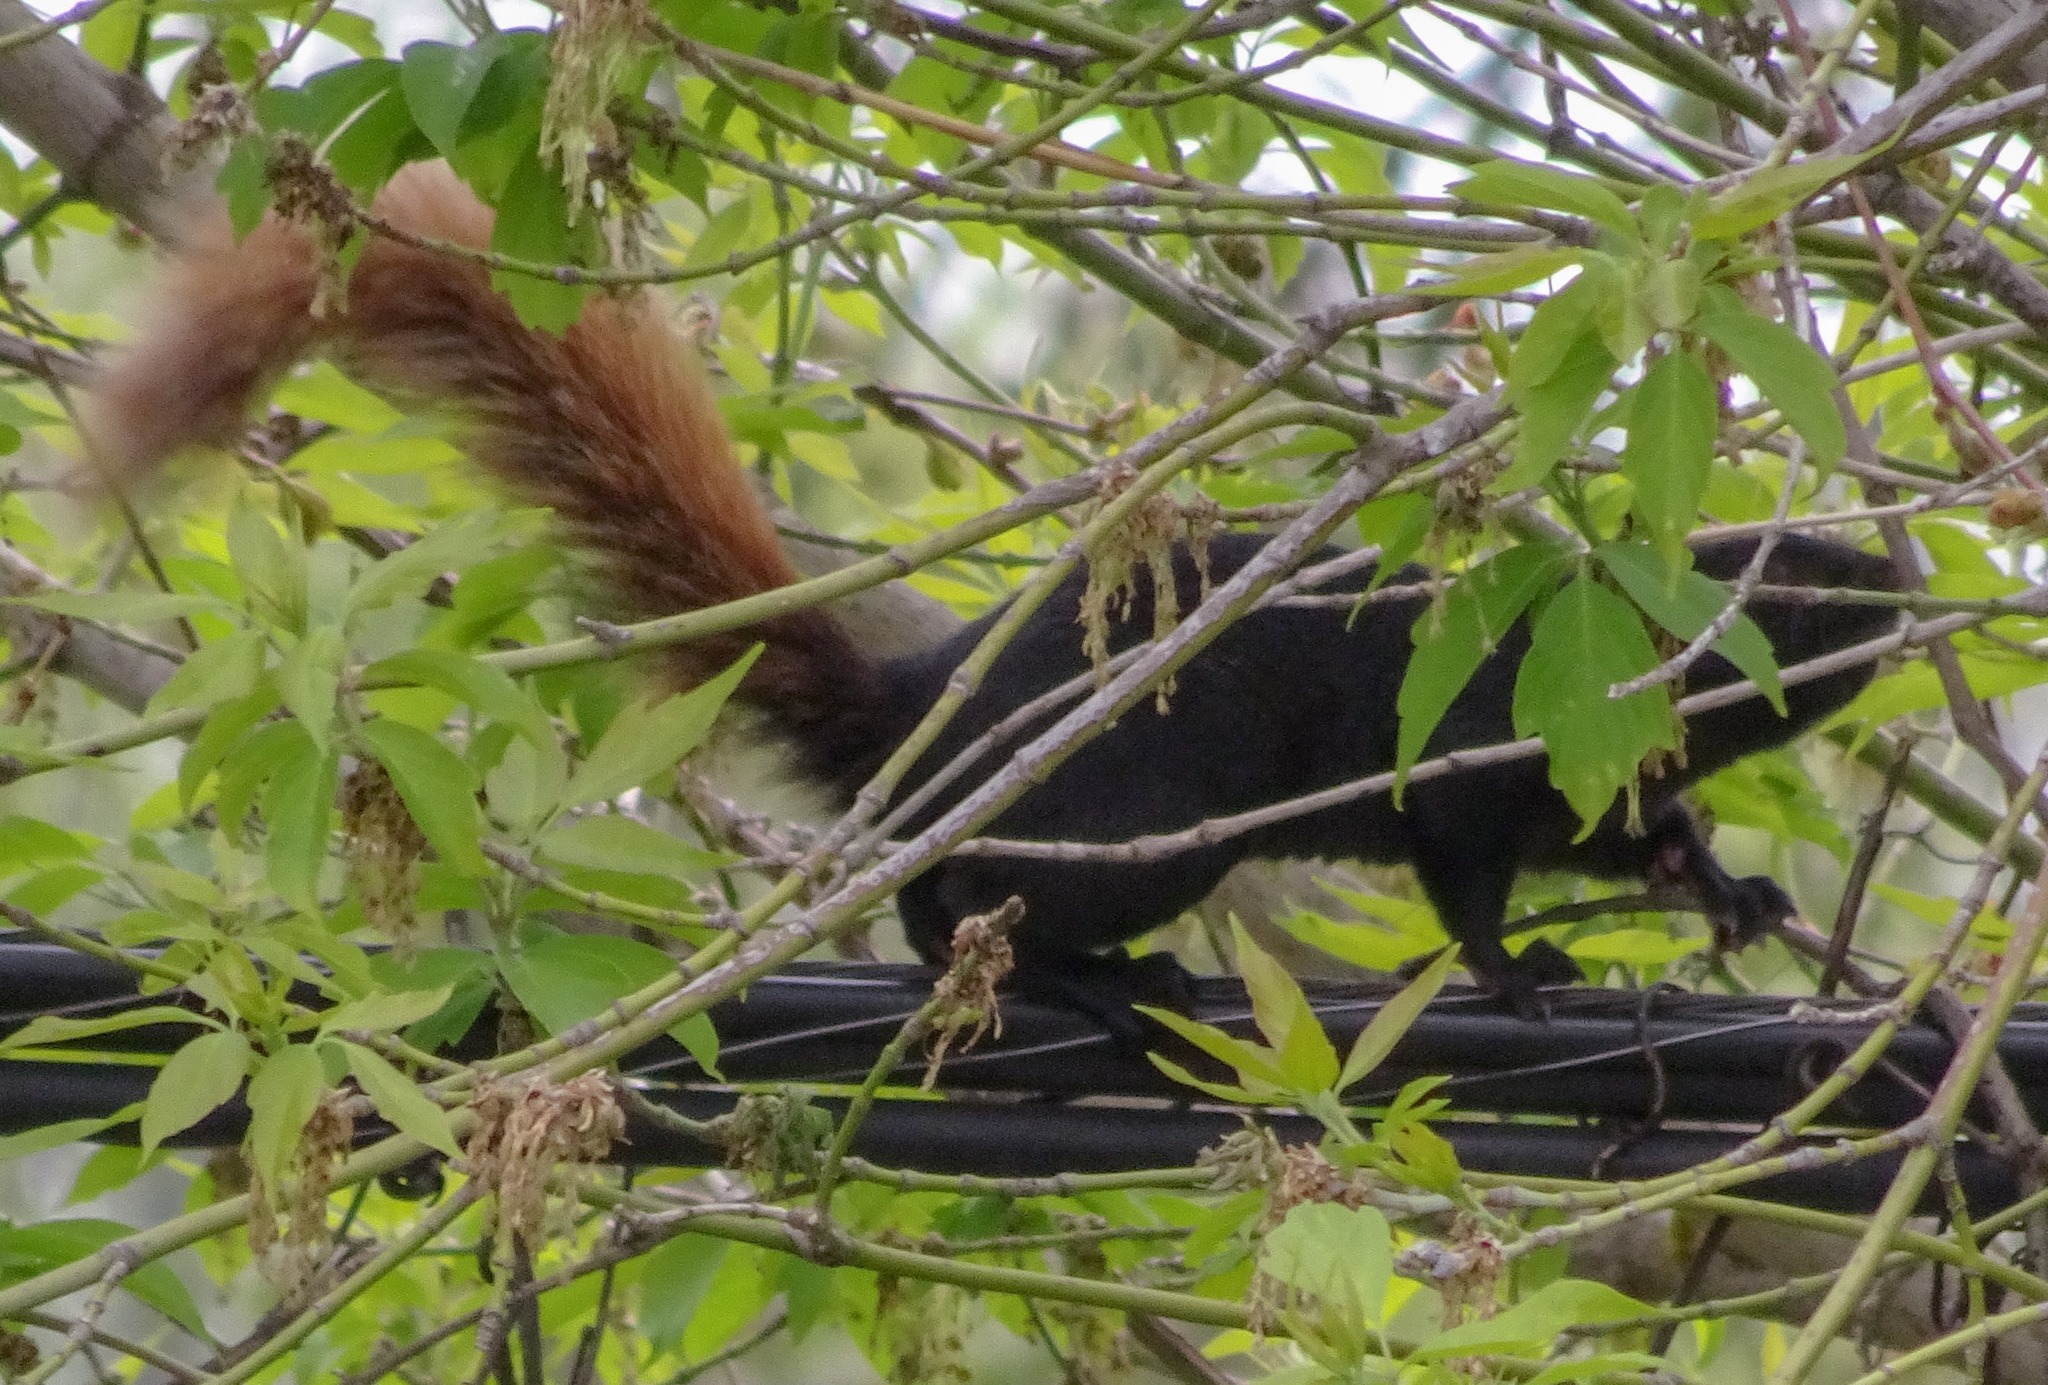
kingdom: Animalia
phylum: Chordata
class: Mammalia
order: Rodentia
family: Sciuridae
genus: Sciurus
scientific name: Sciurus carolinensis
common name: Eastern gray squirrel
